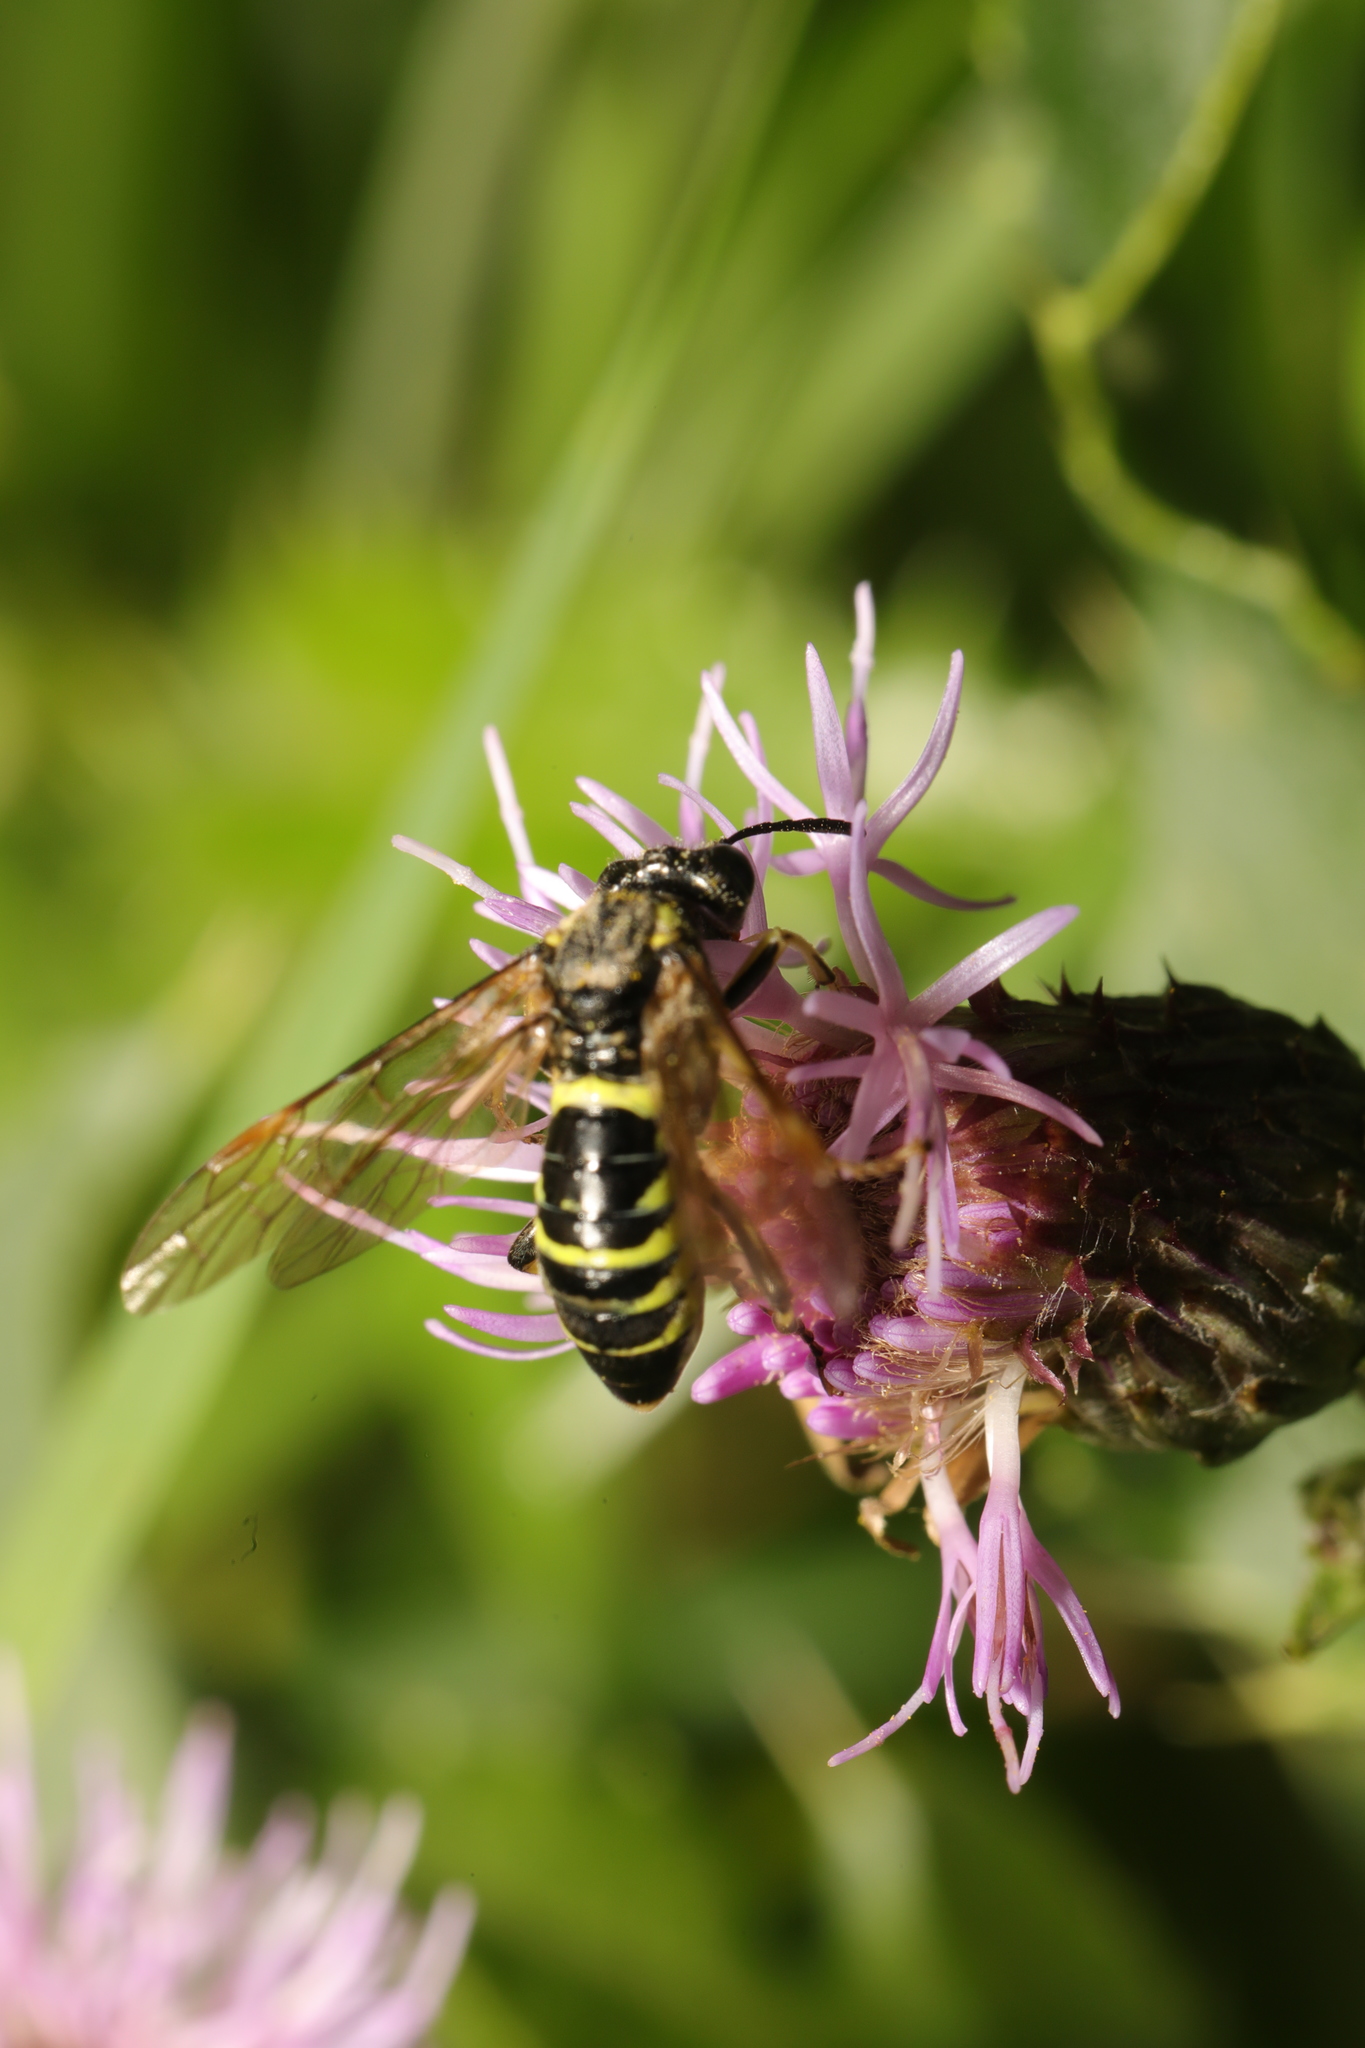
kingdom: Animalia
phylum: Arthropoda
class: Insecta
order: Hymenoptera
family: Tenthredinidae
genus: Tenthredo
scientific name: Tenthredo notha
